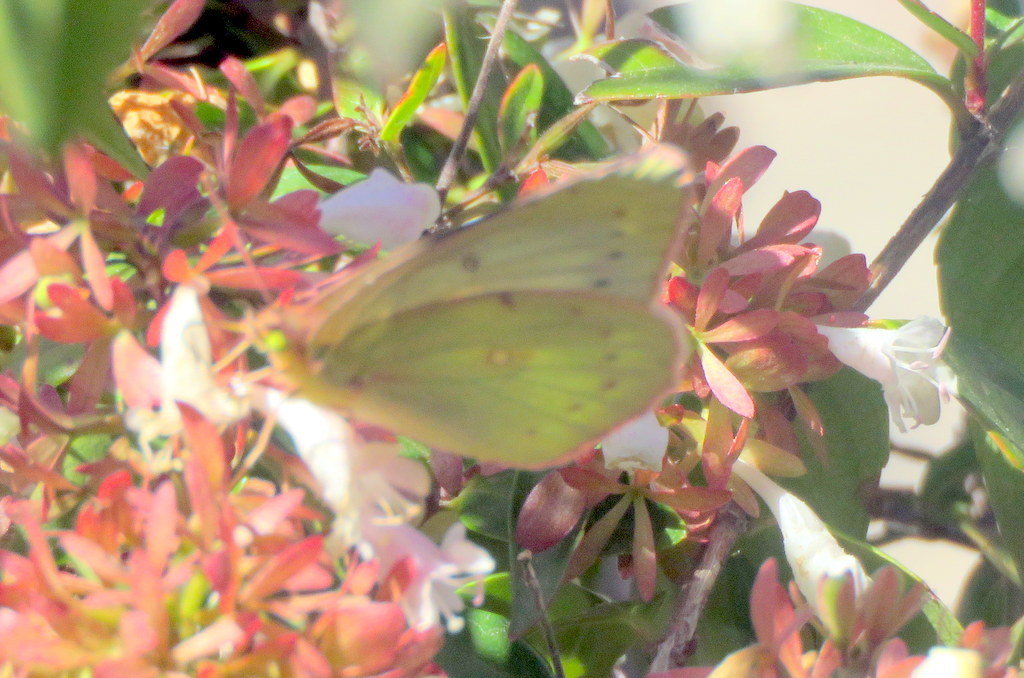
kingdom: Animalia
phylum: Arthropoda
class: Insecta
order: Lepidoptera
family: Pieridae
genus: Colias
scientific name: Colias lesbia
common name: Lesbia clouded yellow
